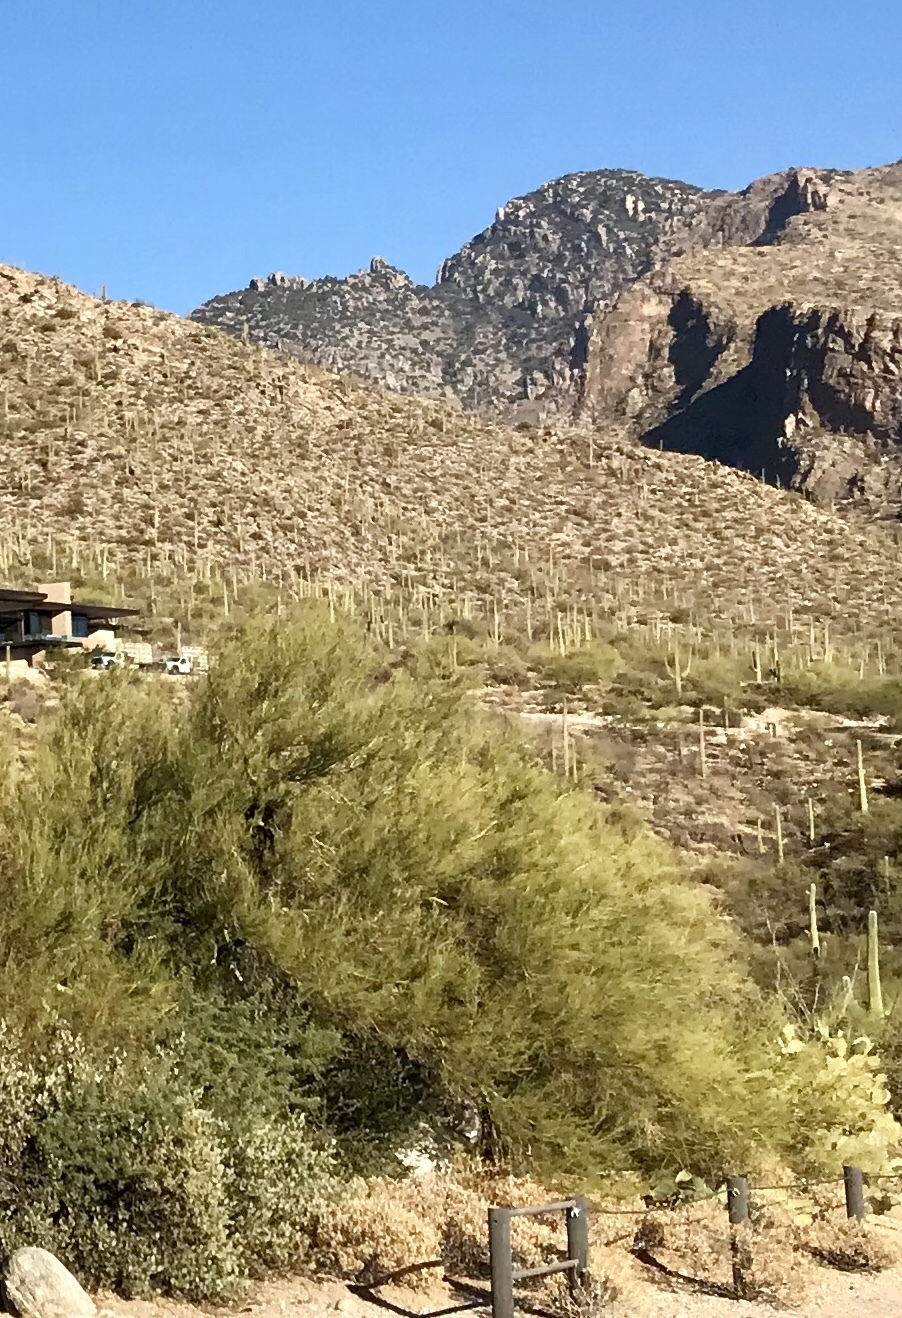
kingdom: Plantae
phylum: Tracheophyta
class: Magnoliopsida
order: Fabales
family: Fabaceae
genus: Parkinsonia
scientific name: Parkinsonia microphylla
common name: Yellow paloverde
